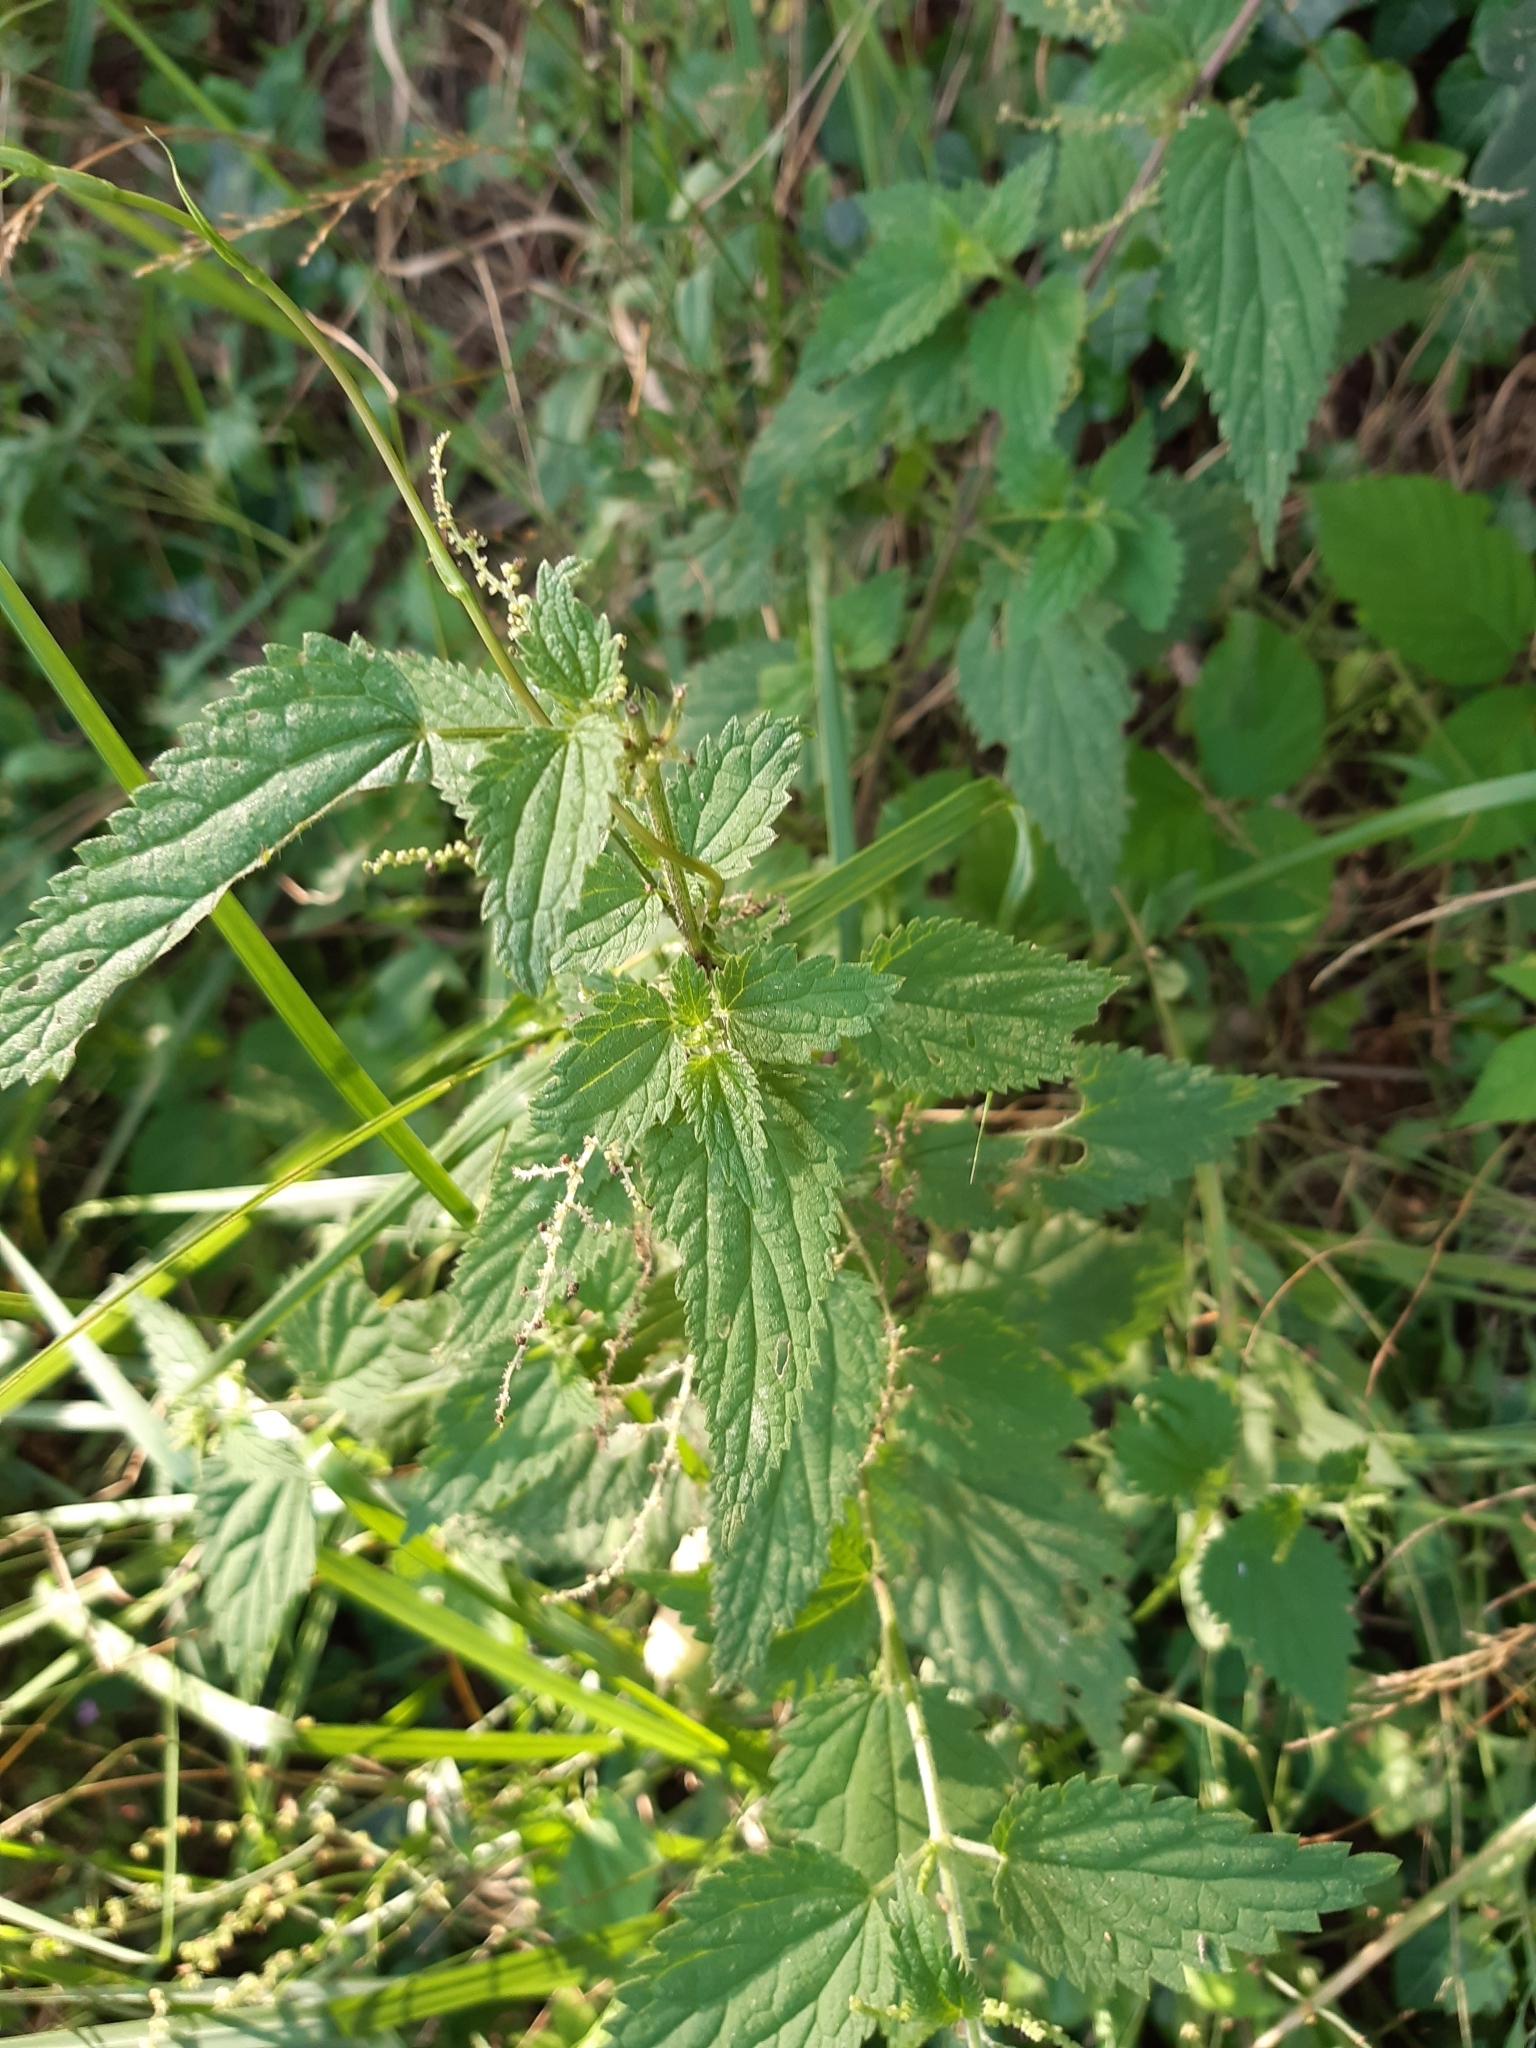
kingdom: Plantae
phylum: Tracheophyta
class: Magnoliopsida
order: Rosales
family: Urticaceae
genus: Urtica
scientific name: Urtica dioica
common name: Common nettle
